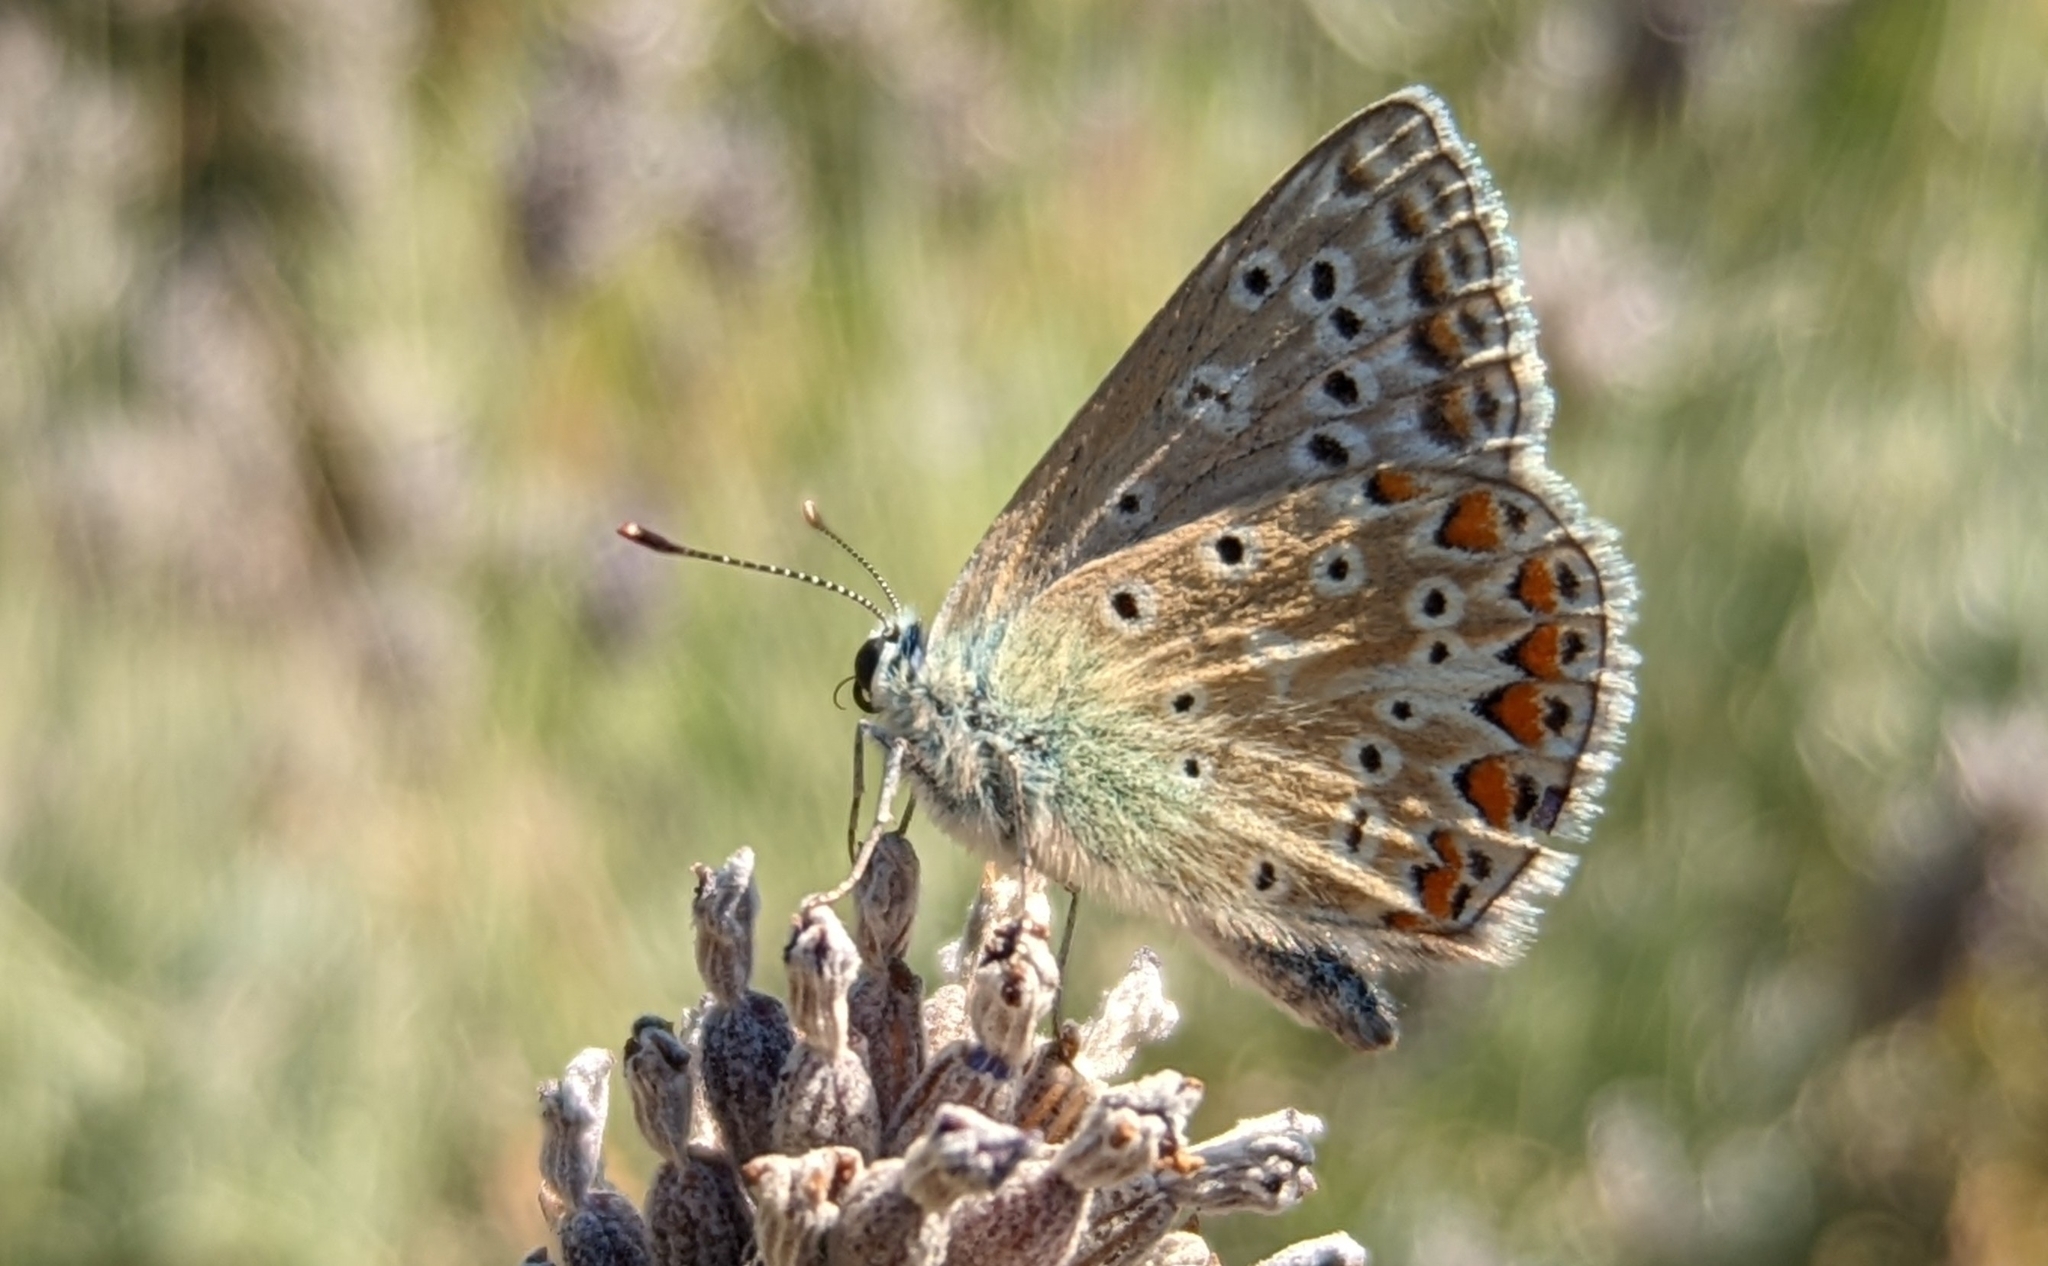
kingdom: Animalia
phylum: Arthropoda
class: Insecta
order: Lepidoptera
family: Lycaenidae
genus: Polyommatus
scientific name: Polyommatus icarus
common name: Common blue
